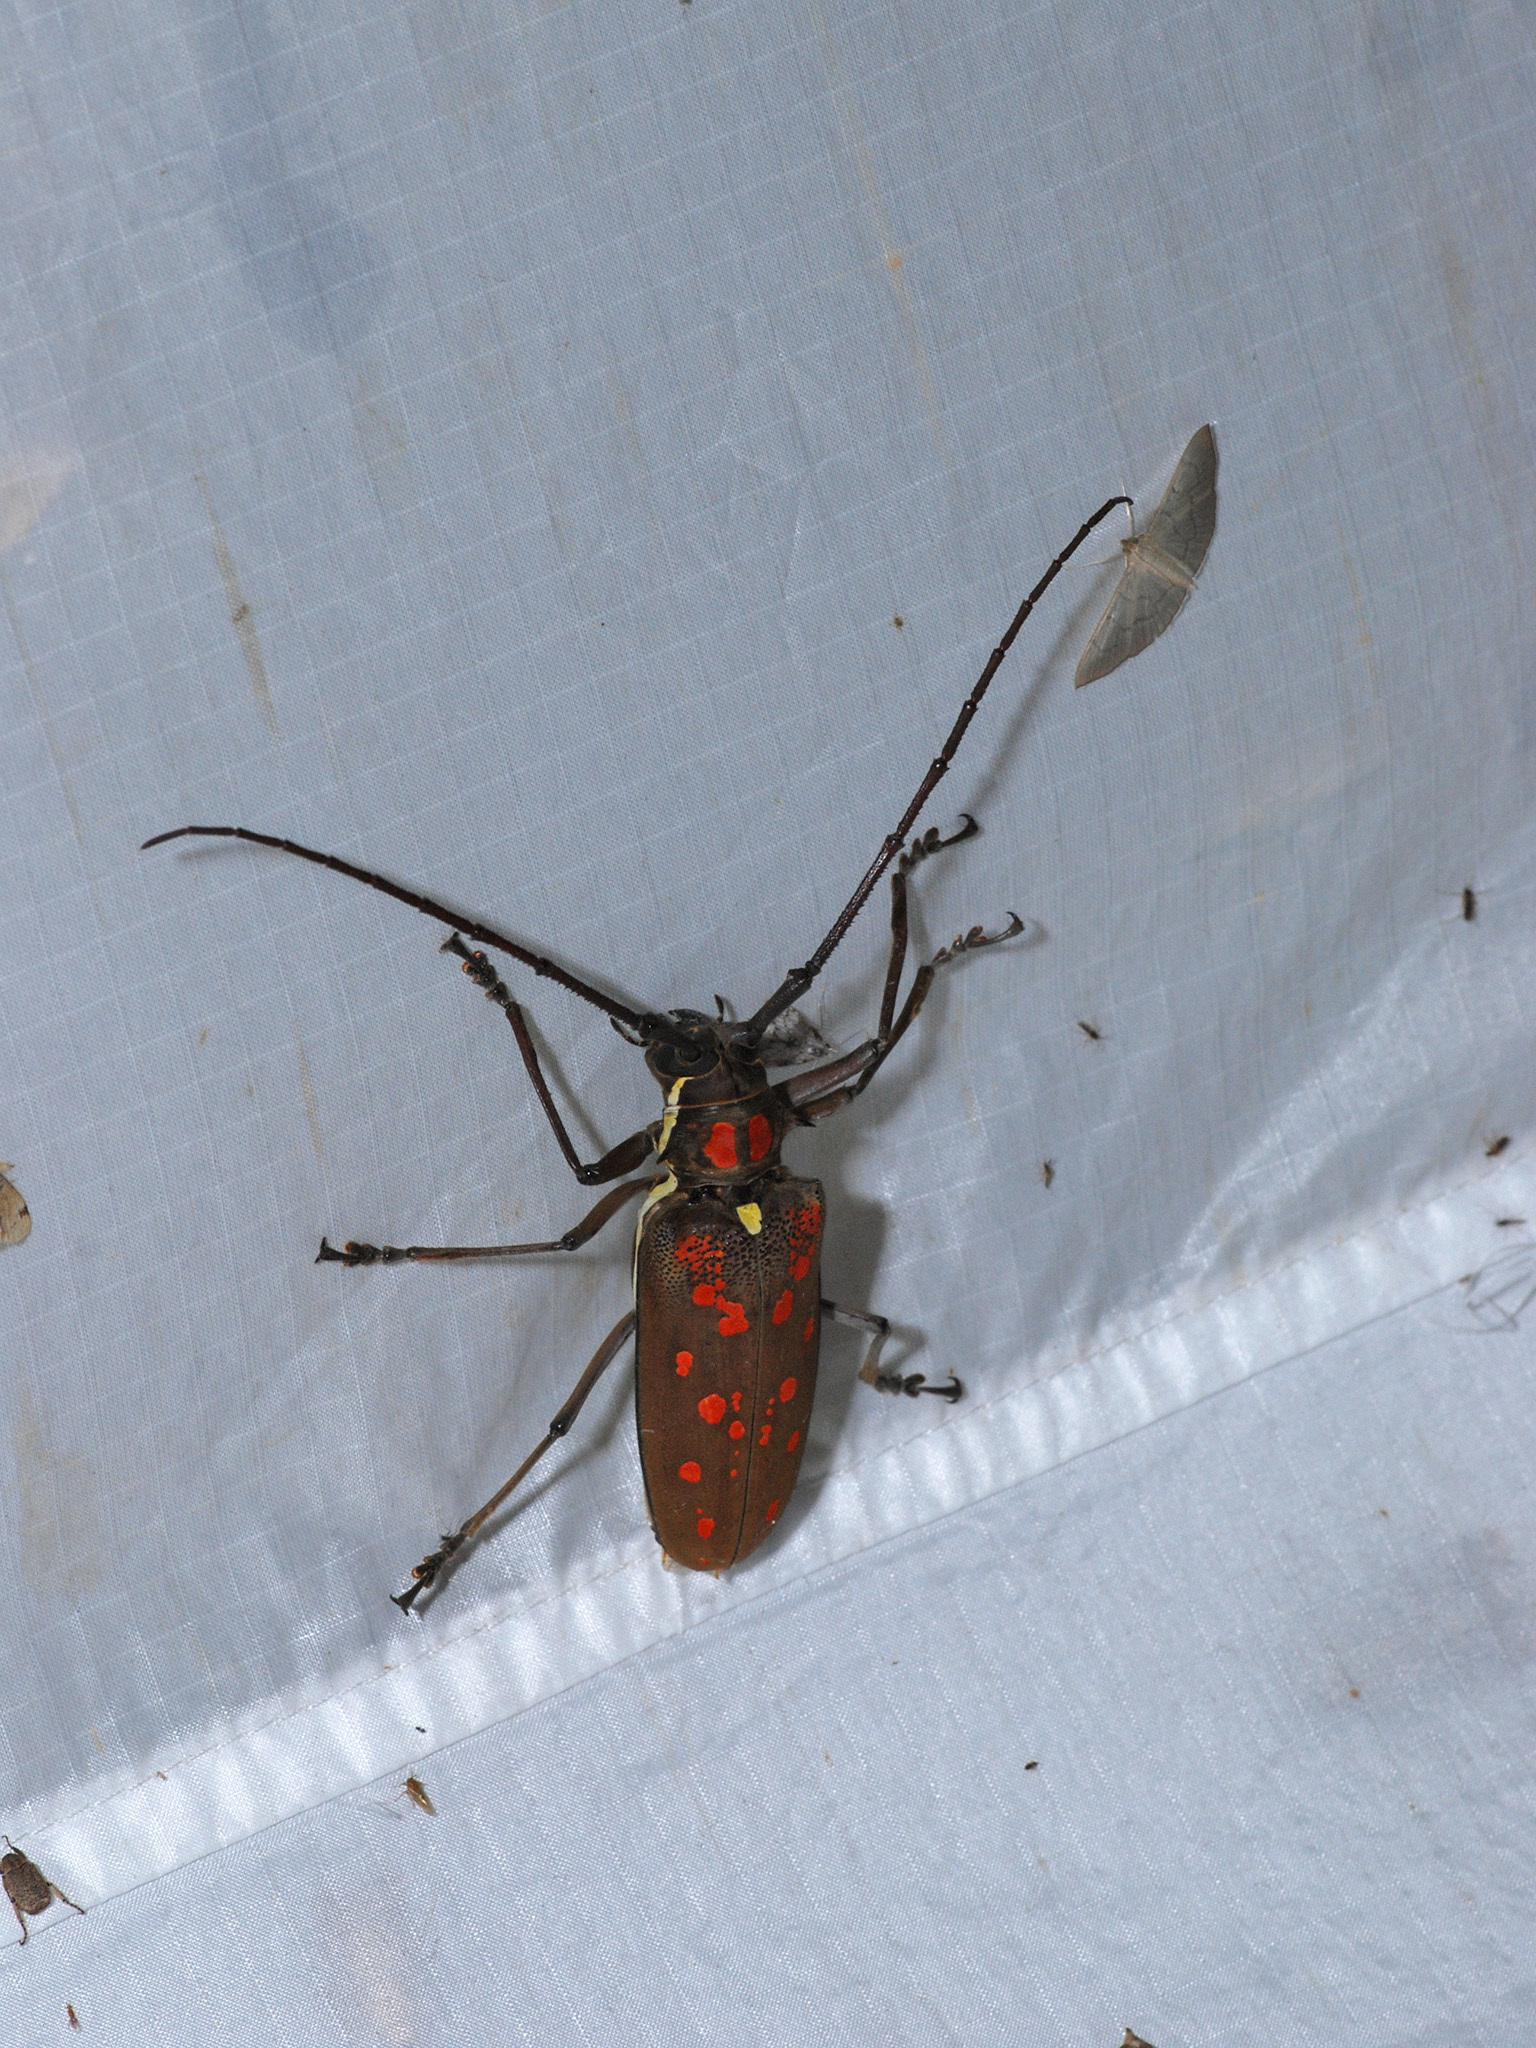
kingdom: Animalia
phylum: Arthropoda
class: Insecta
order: Coleoptera
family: Cerambycidae
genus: Batocera
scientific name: Batocera victoriana
